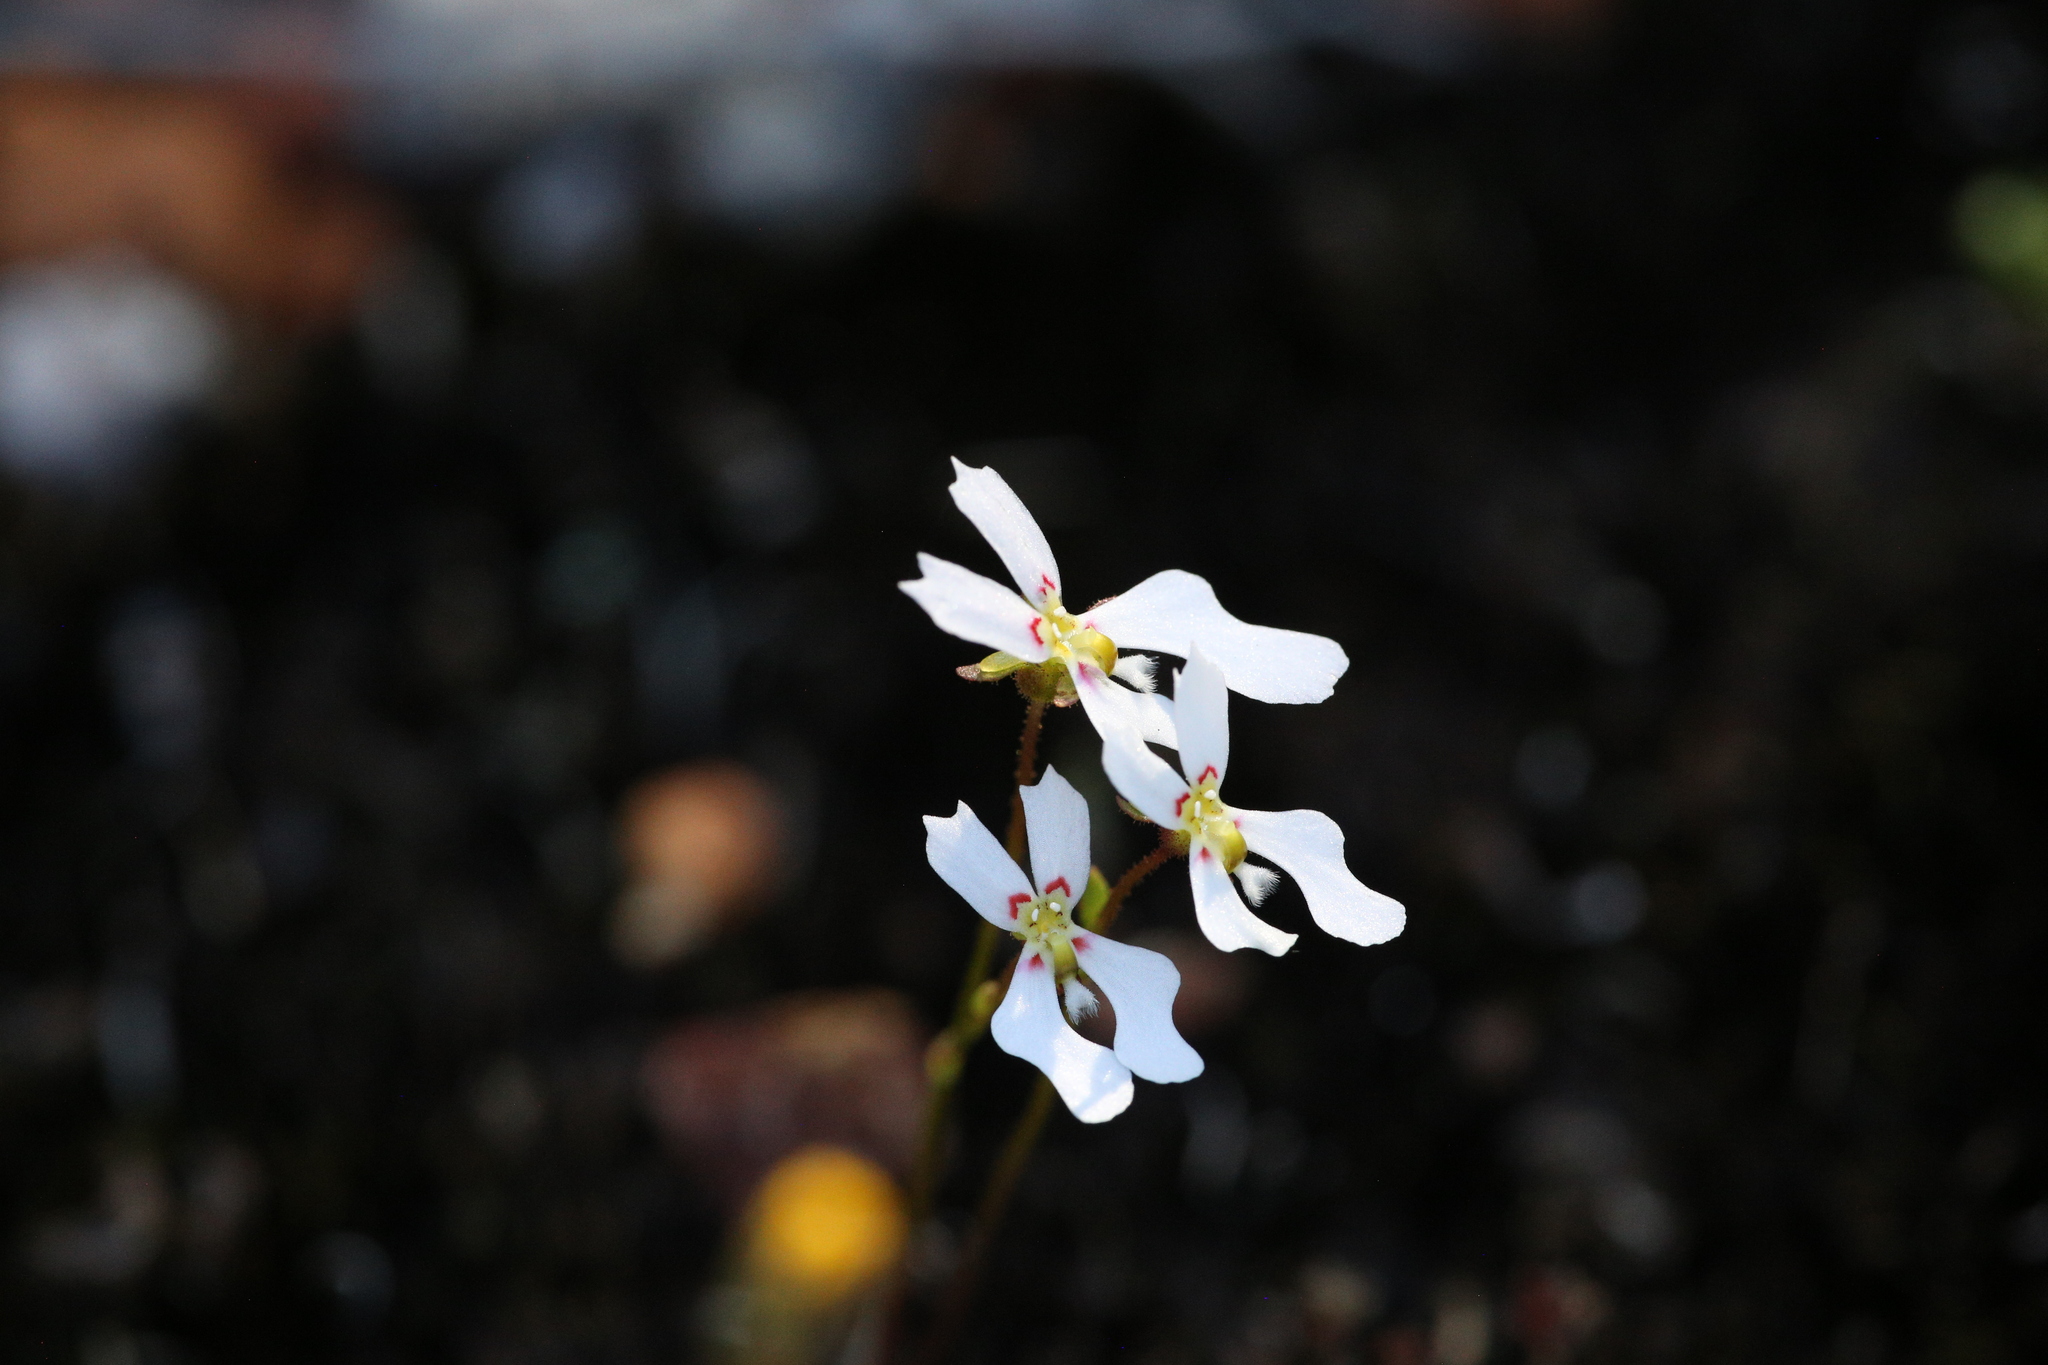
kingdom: Plantae
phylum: Tracheophyta
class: Magnoliopsida
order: Asterales
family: Stylidiaceae
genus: Stylidium
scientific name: Stylidium androsaceum
